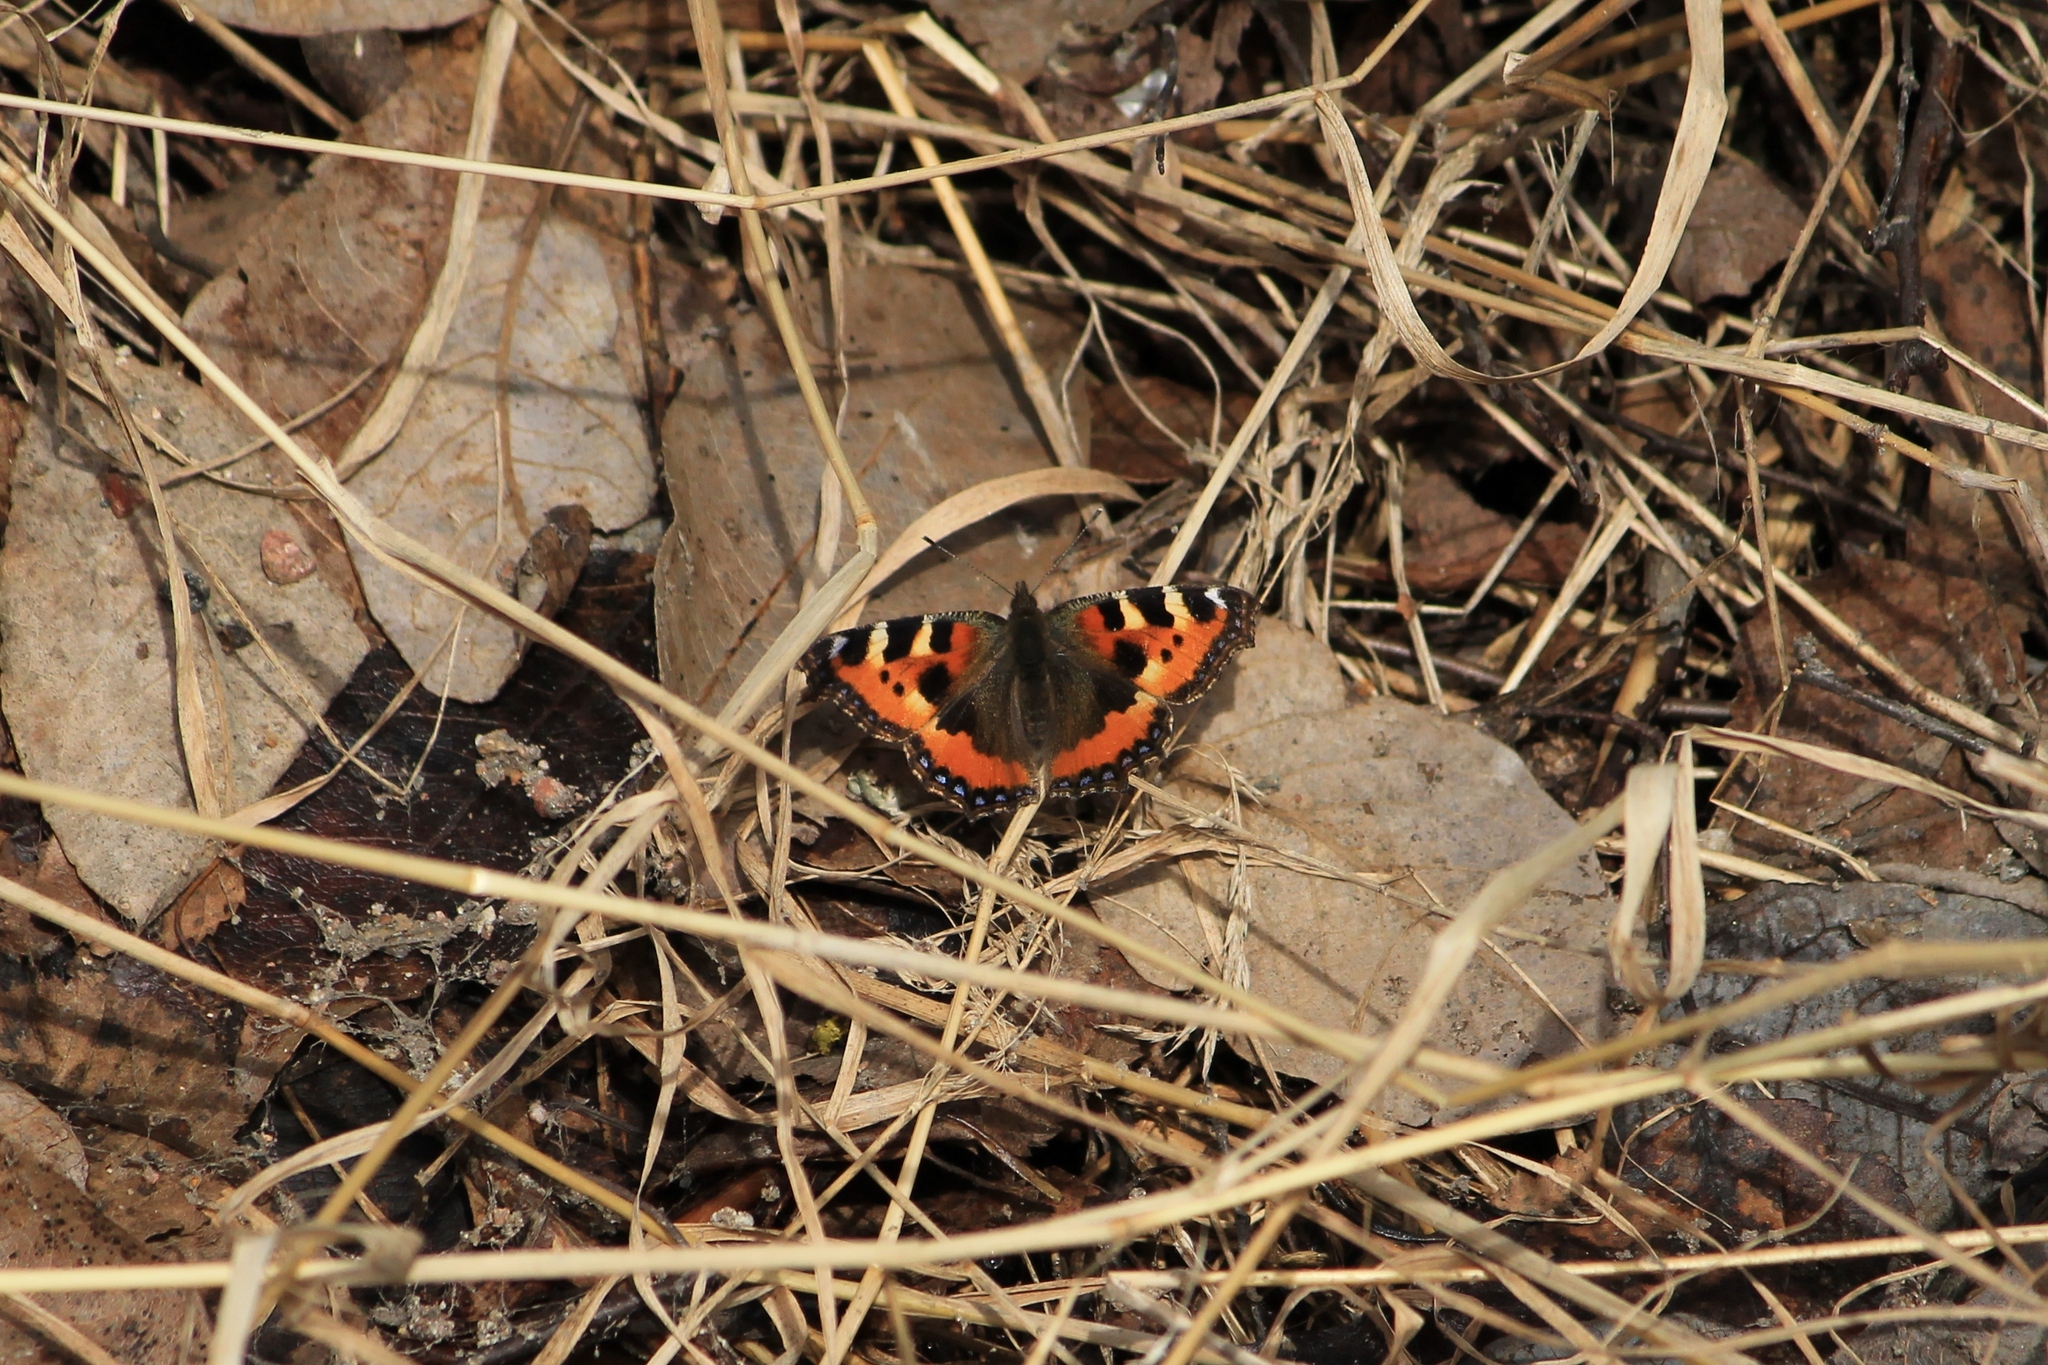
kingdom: Animalia
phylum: Arthropoda
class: Insecta
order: Lepidoptera
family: Nymphalidae
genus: Aglais
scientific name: Aglais urticae
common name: Small tortoiseshell
